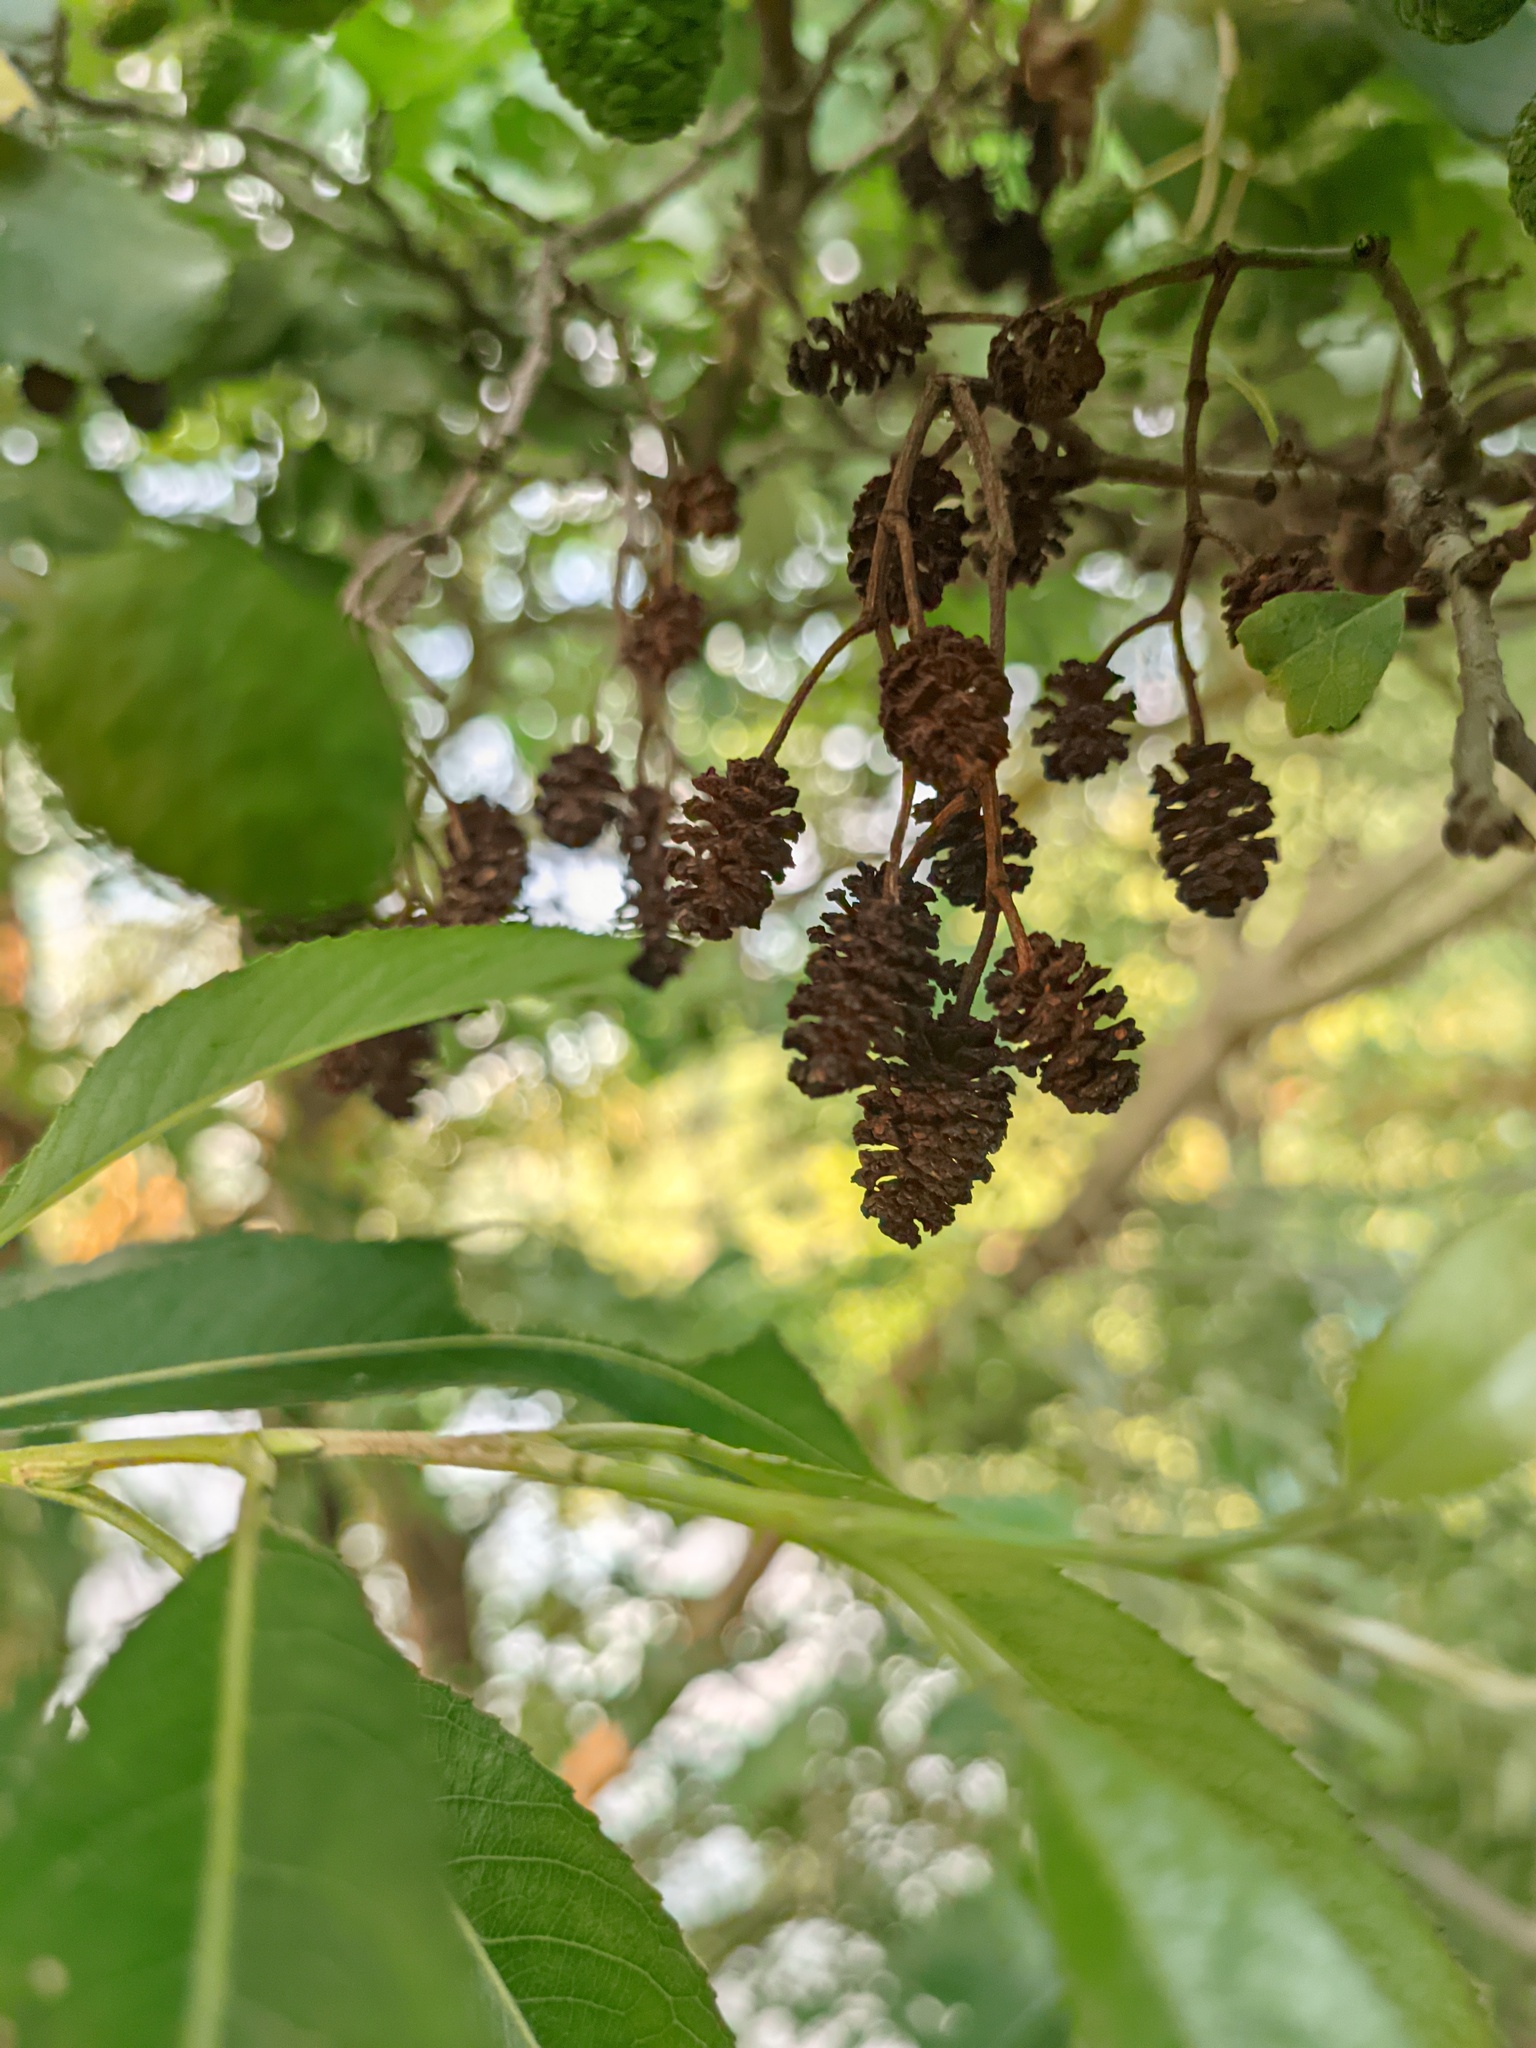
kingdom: Plantae
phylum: Tracheophyta
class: Magnoliopsida
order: Fagales
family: Betulaceae
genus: Alnus
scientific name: Alnus glutinosa
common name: Black alder
